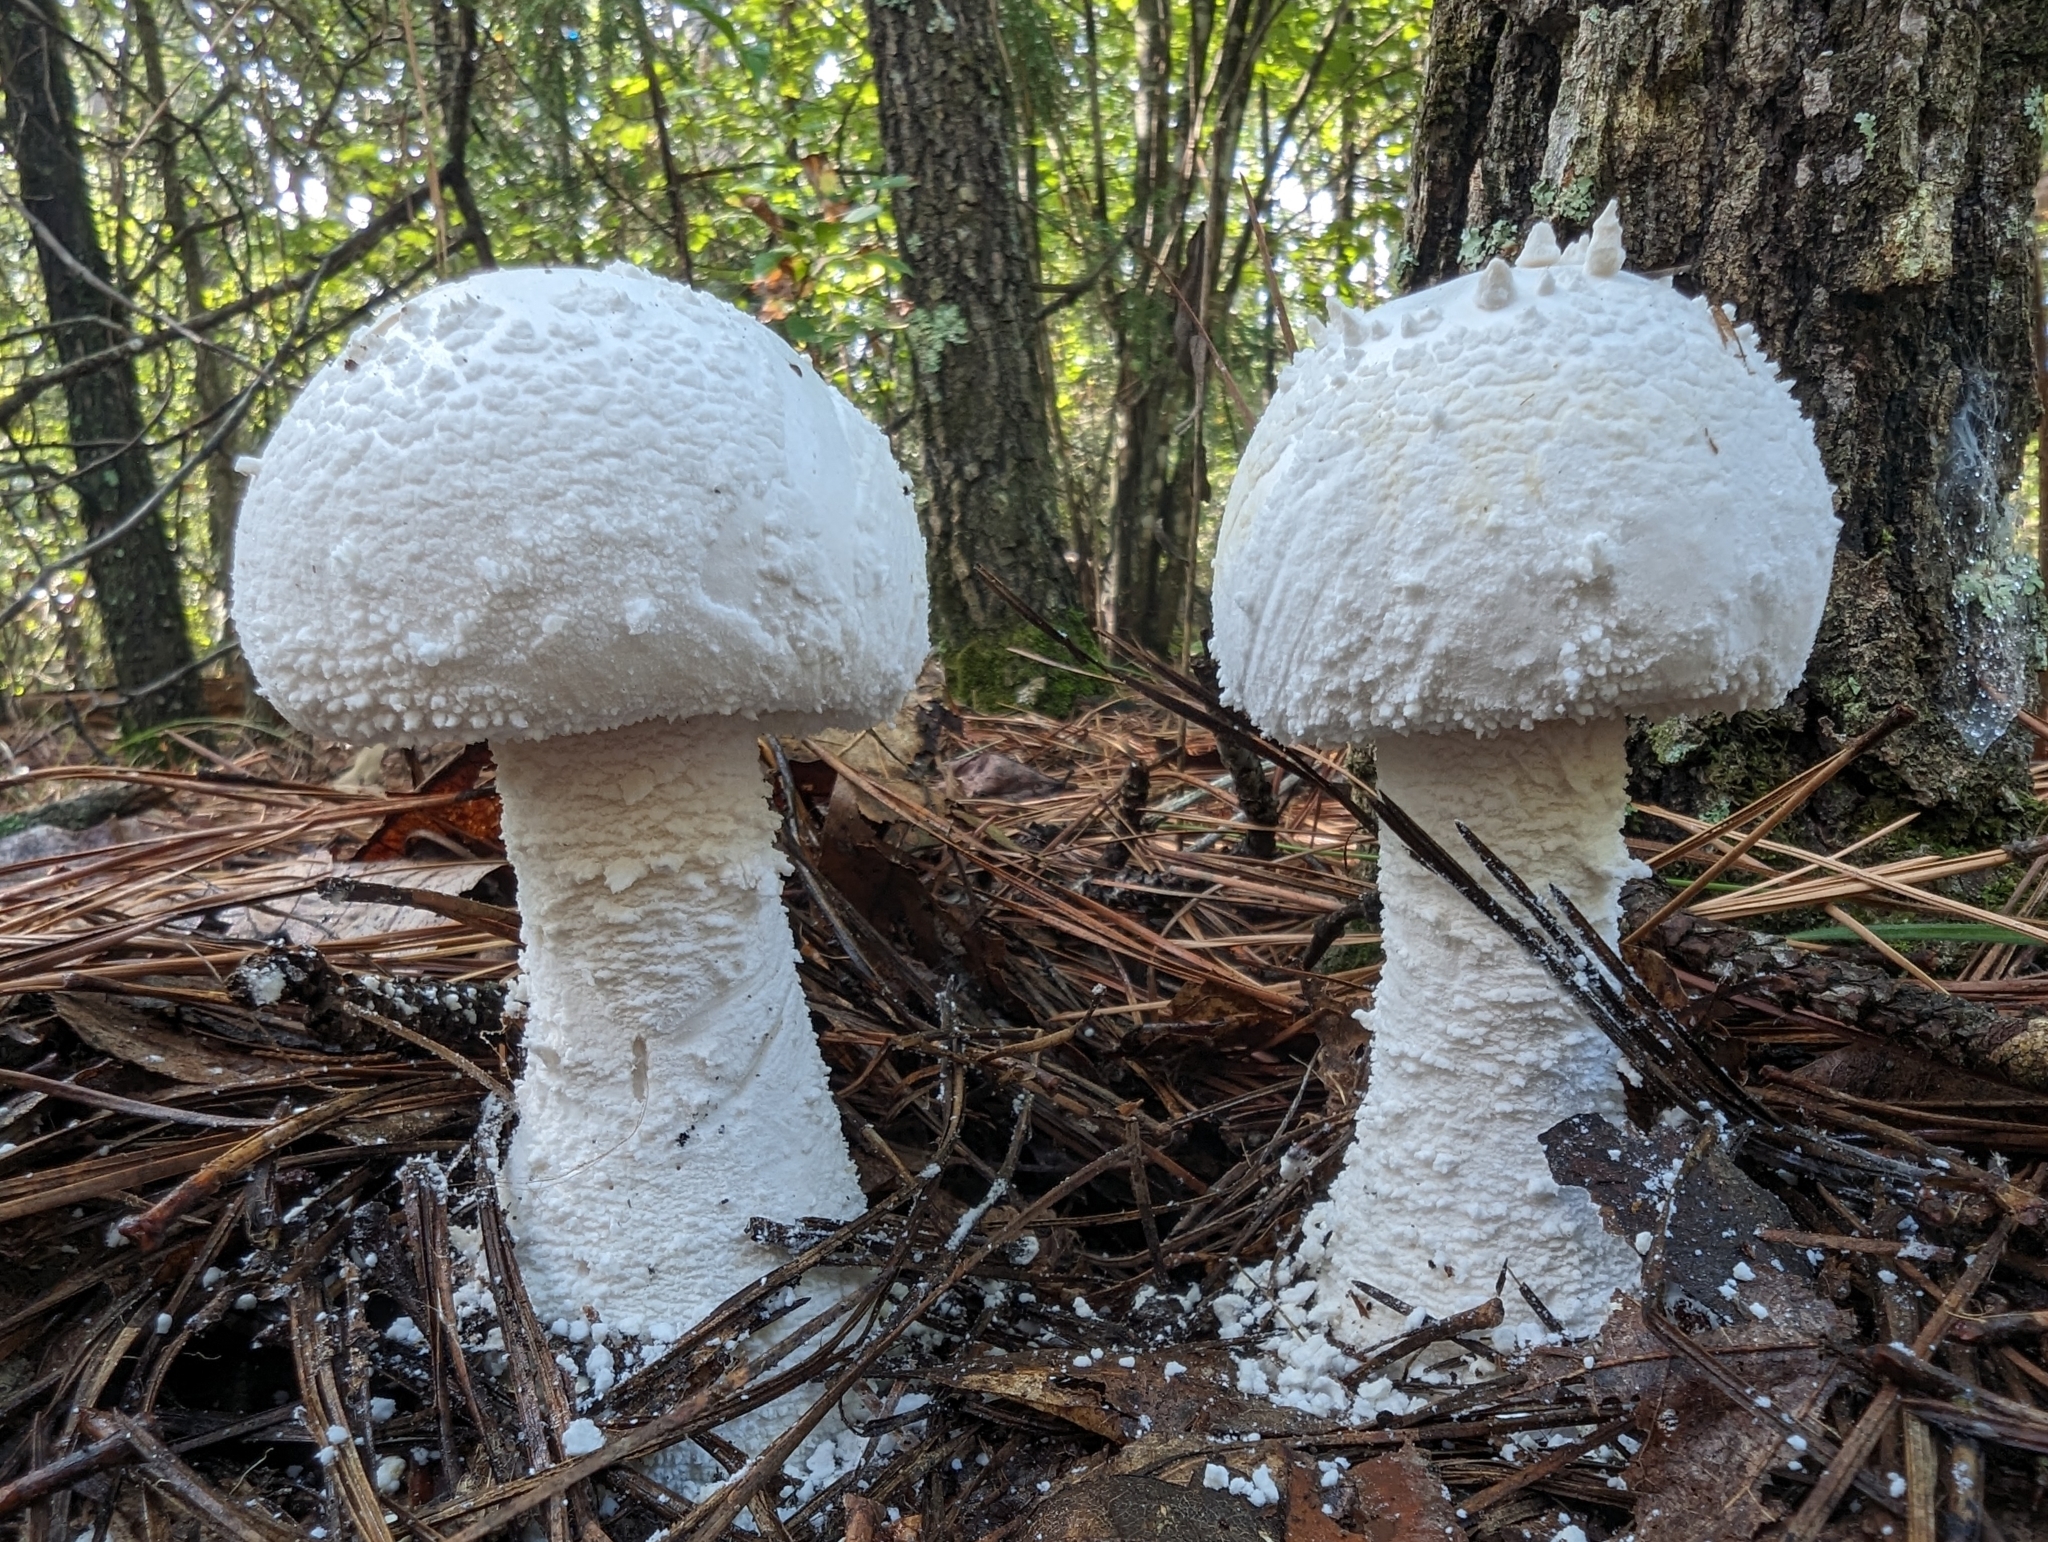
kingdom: Fungi
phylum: Basidiomycota
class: Agaricomycetes
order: Agaricales
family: Amanitaceae
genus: Amanita
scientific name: Amanita polypyramis
